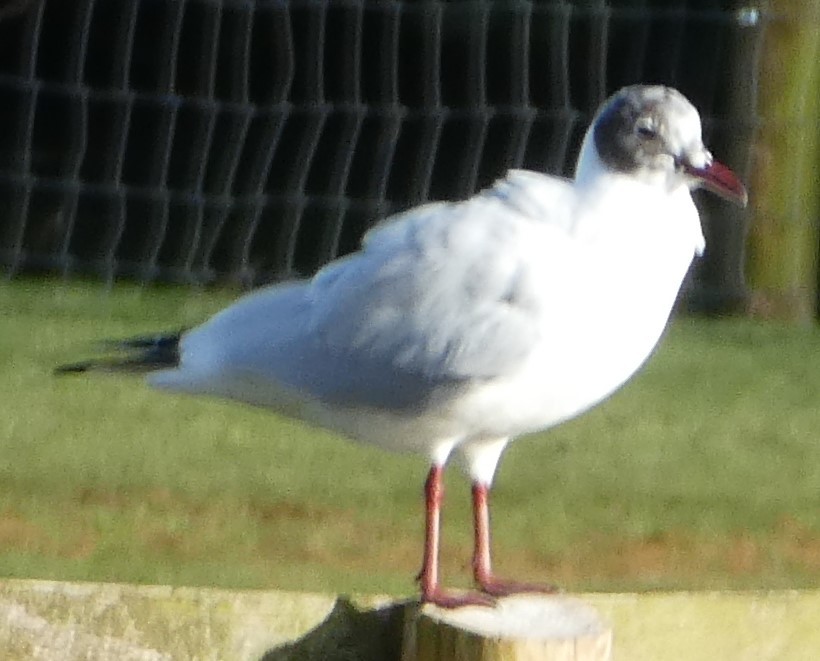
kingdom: Animalia
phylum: Chordata
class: Aves
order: Charadriiformes
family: Laridae
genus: Chroicocephalus
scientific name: Chroicocephalus ridibundus
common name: Black-headed gull
